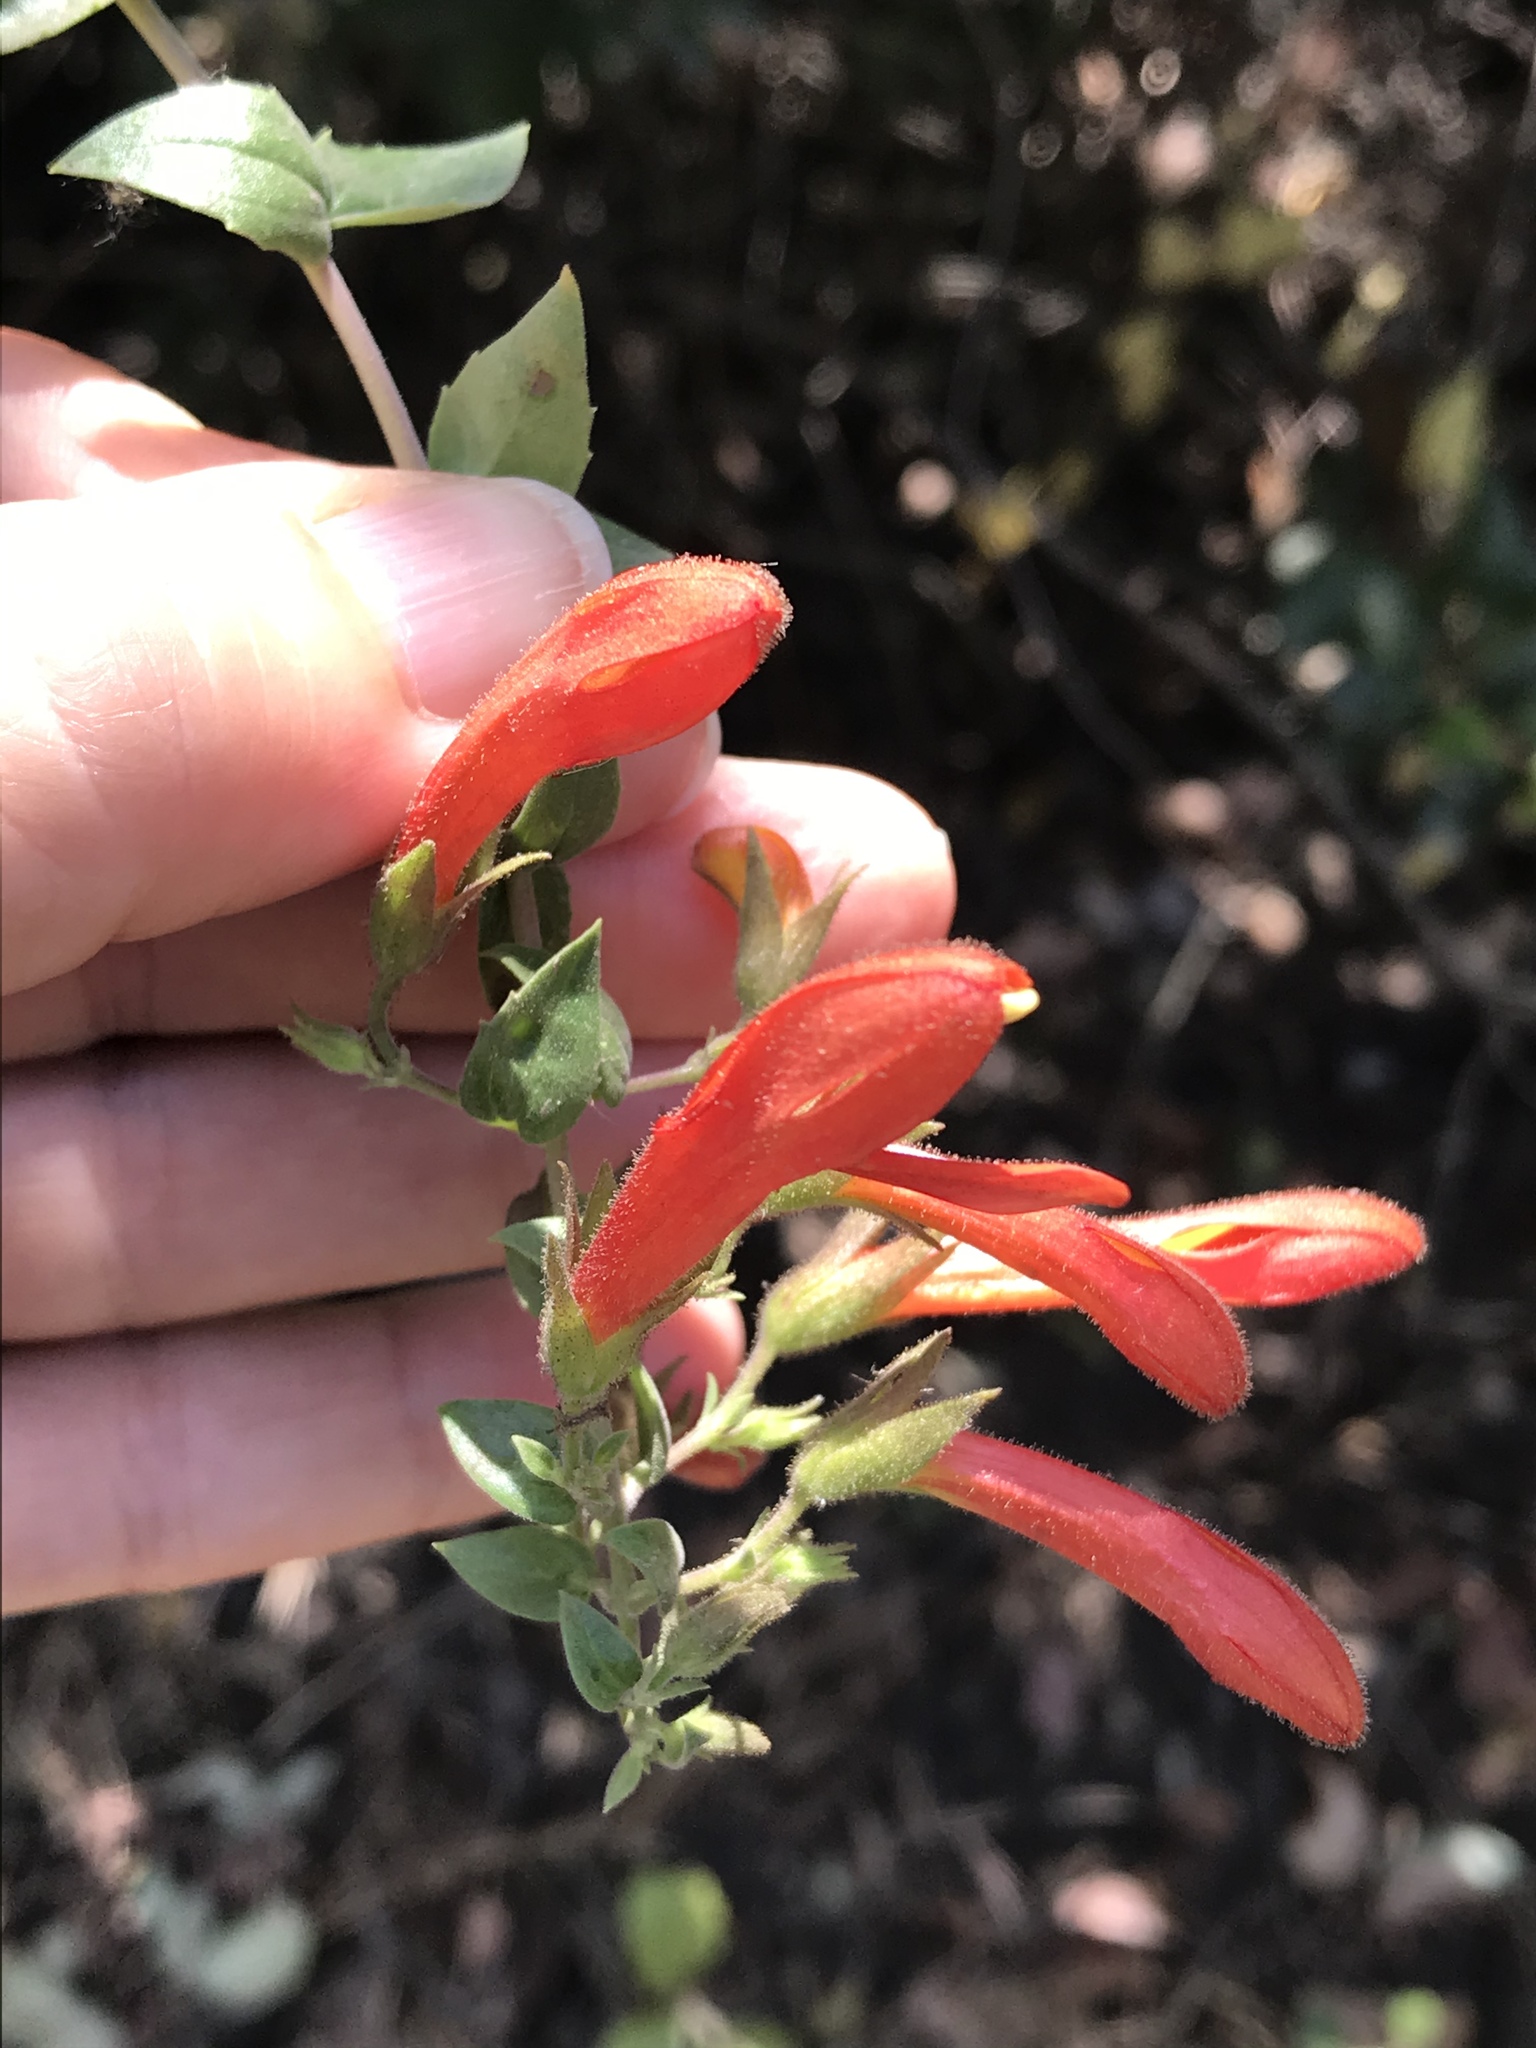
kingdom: Plantae
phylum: Tracheophyta
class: Magnoliopsida
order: Lamiales
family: Plantaginaceae
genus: Keckiella
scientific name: Keckiella cordifolia
